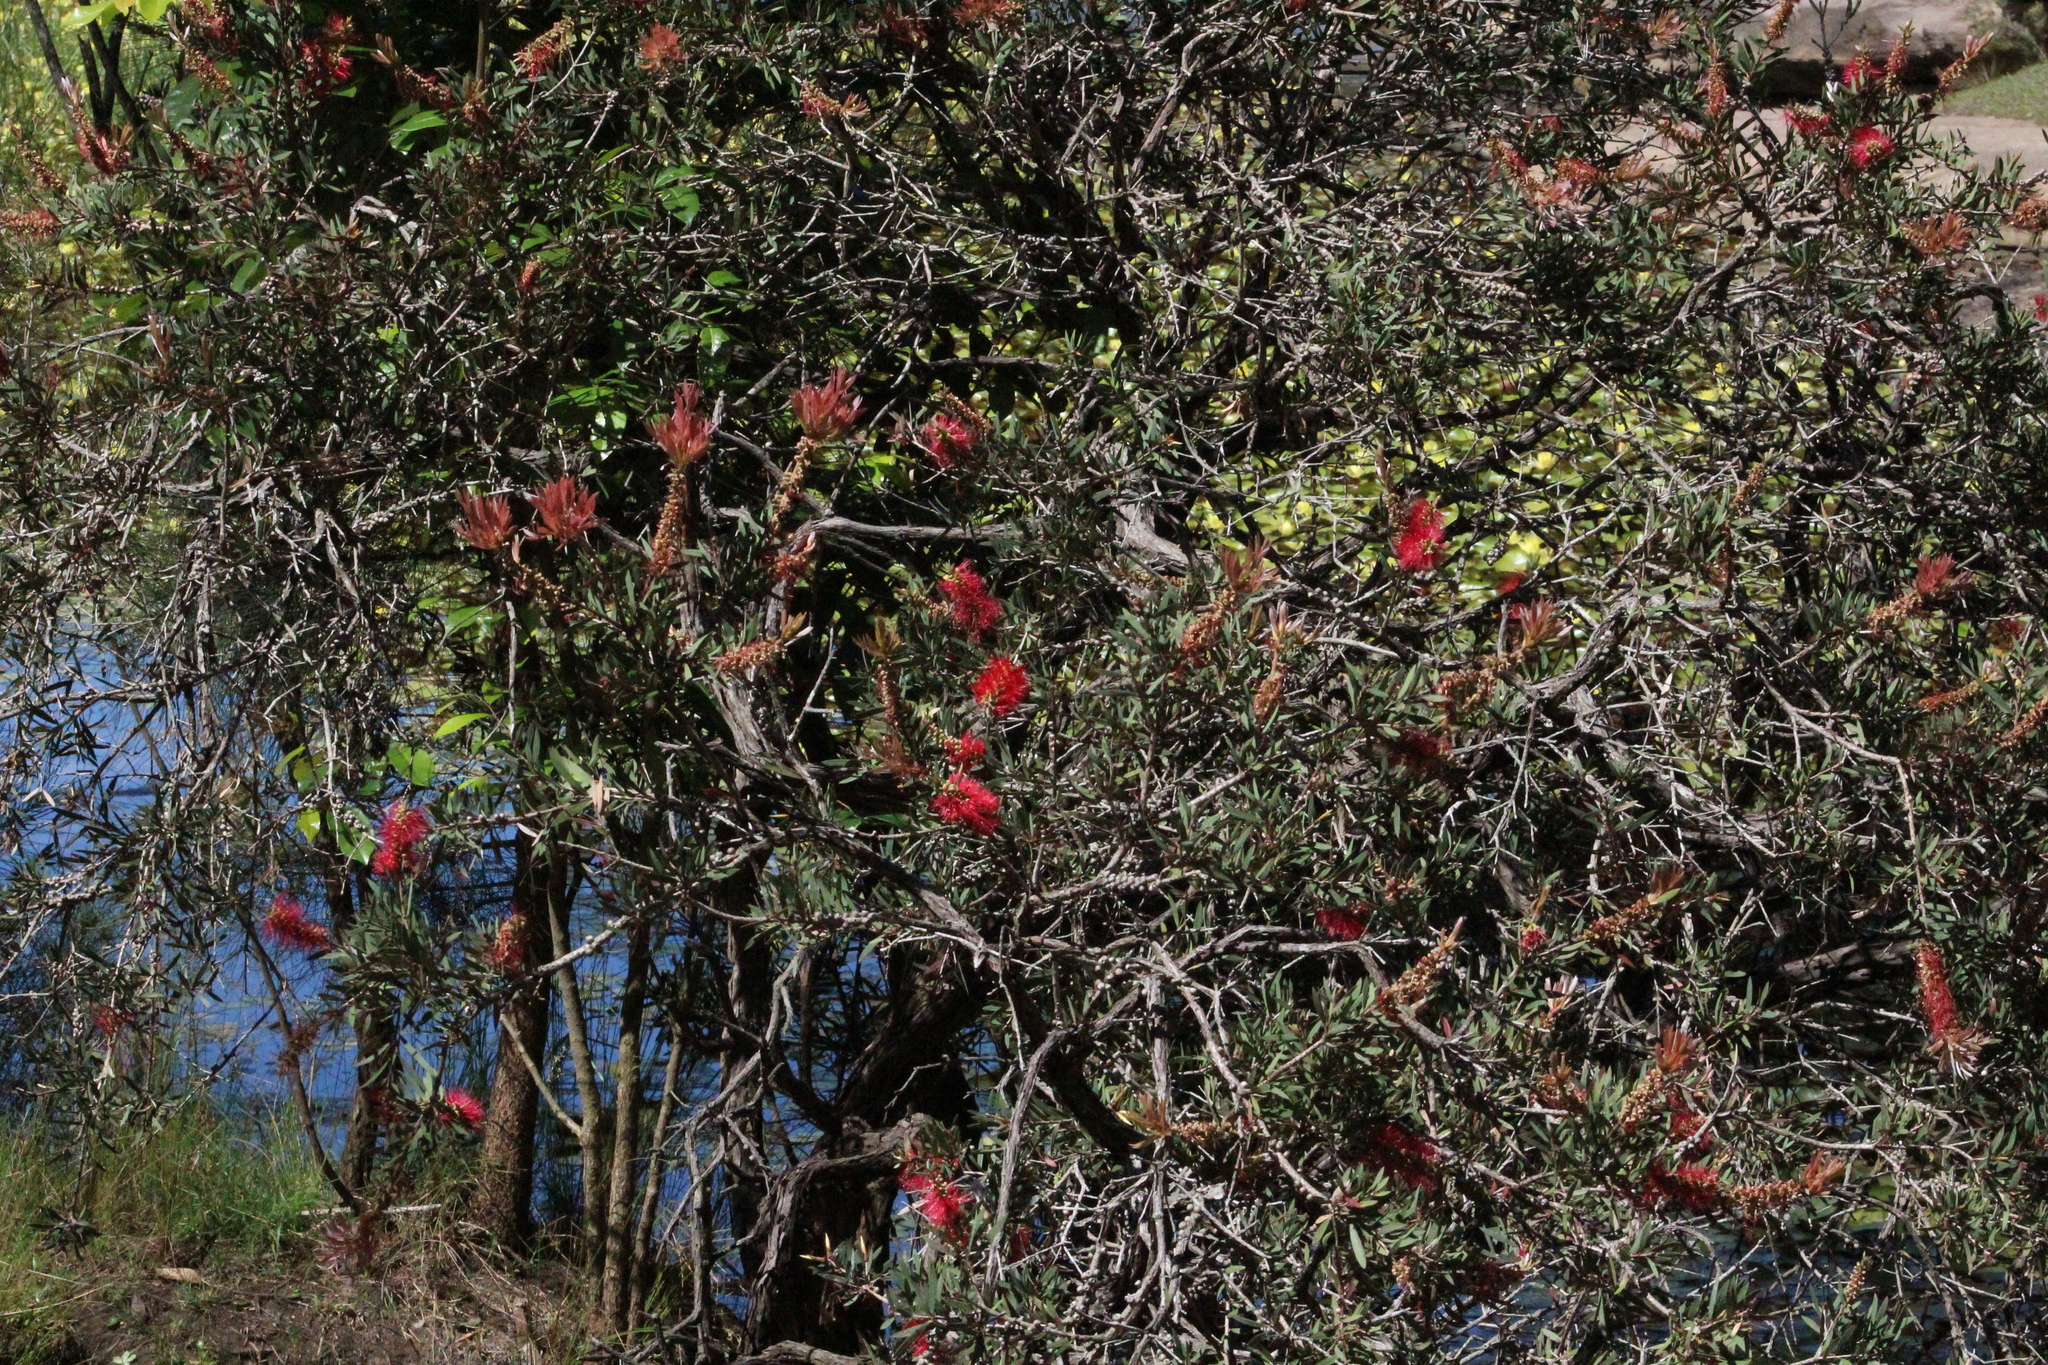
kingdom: Plantae
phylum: Tracheophyta
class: Magnoliopsida
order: Myrtales
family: Myrtaceae
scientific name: Myrtaceae
